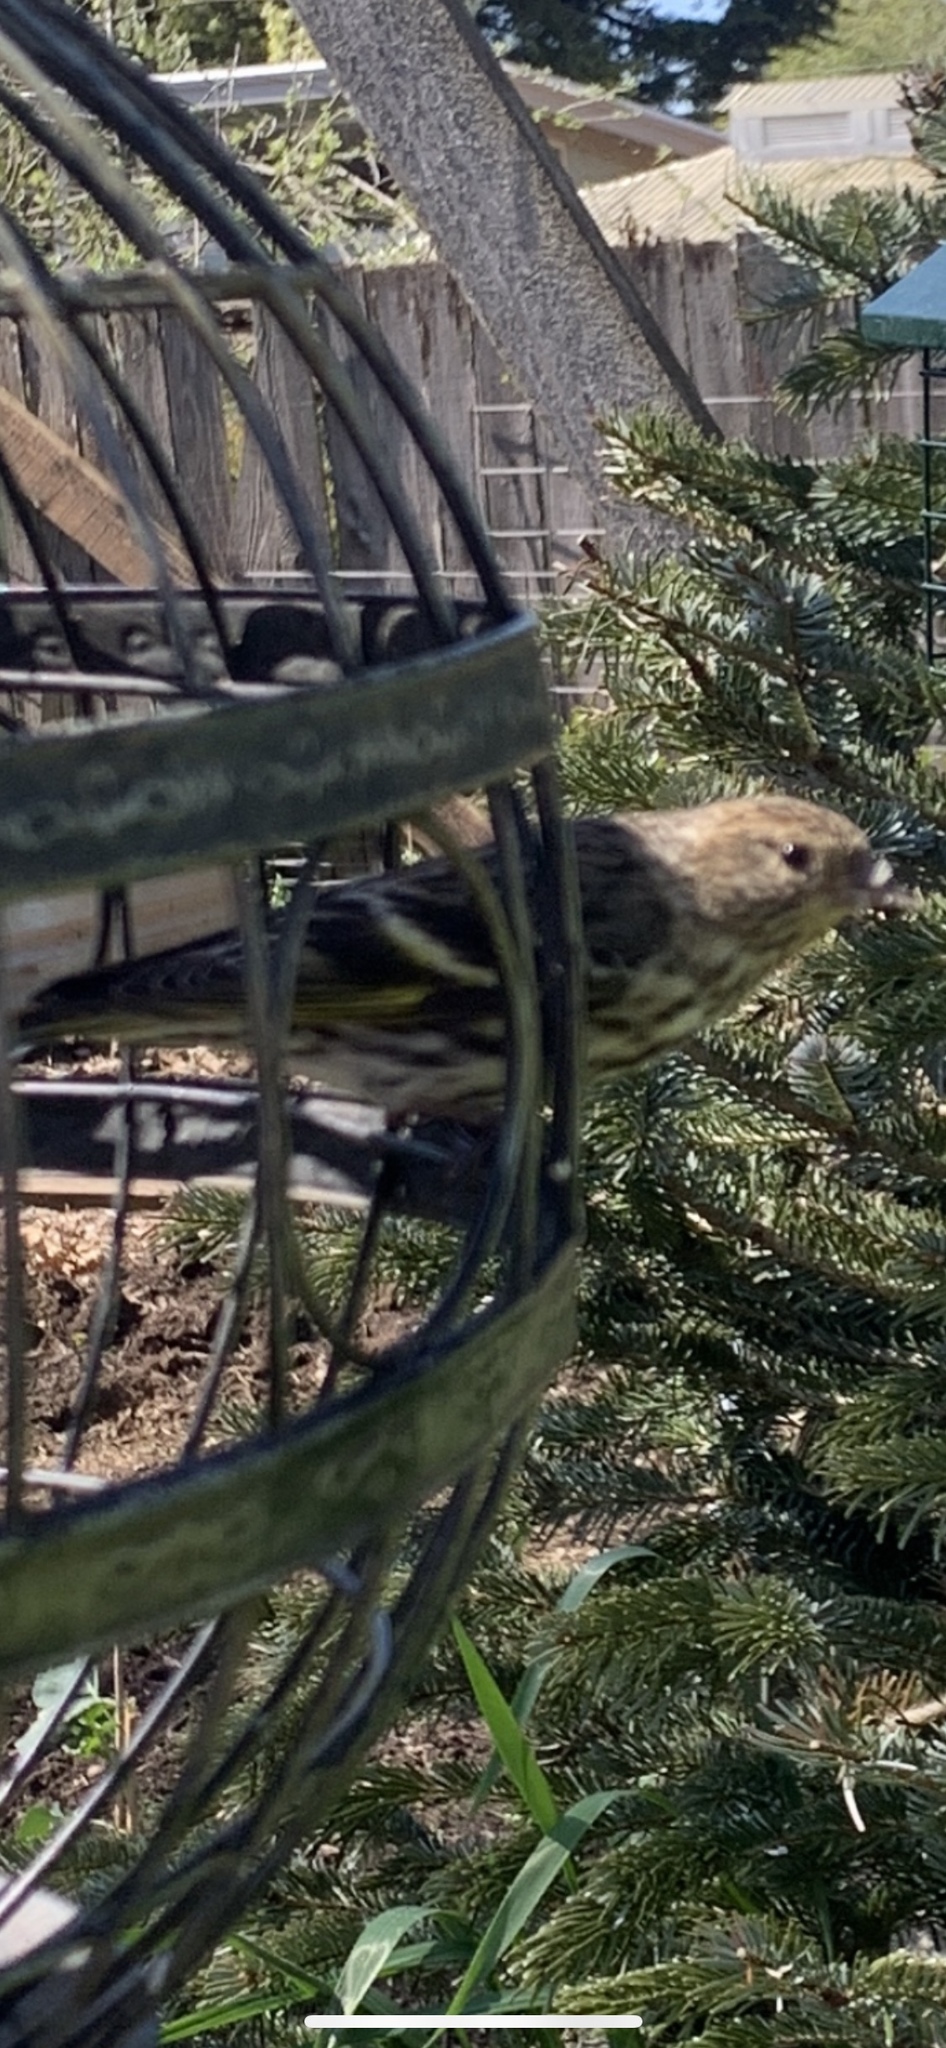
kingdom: Animalia
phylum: Chordata
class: Aves
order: Passeriformes
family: Fringillidae
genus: Spinus
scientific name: Spinus pinus
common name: Pine siskin
